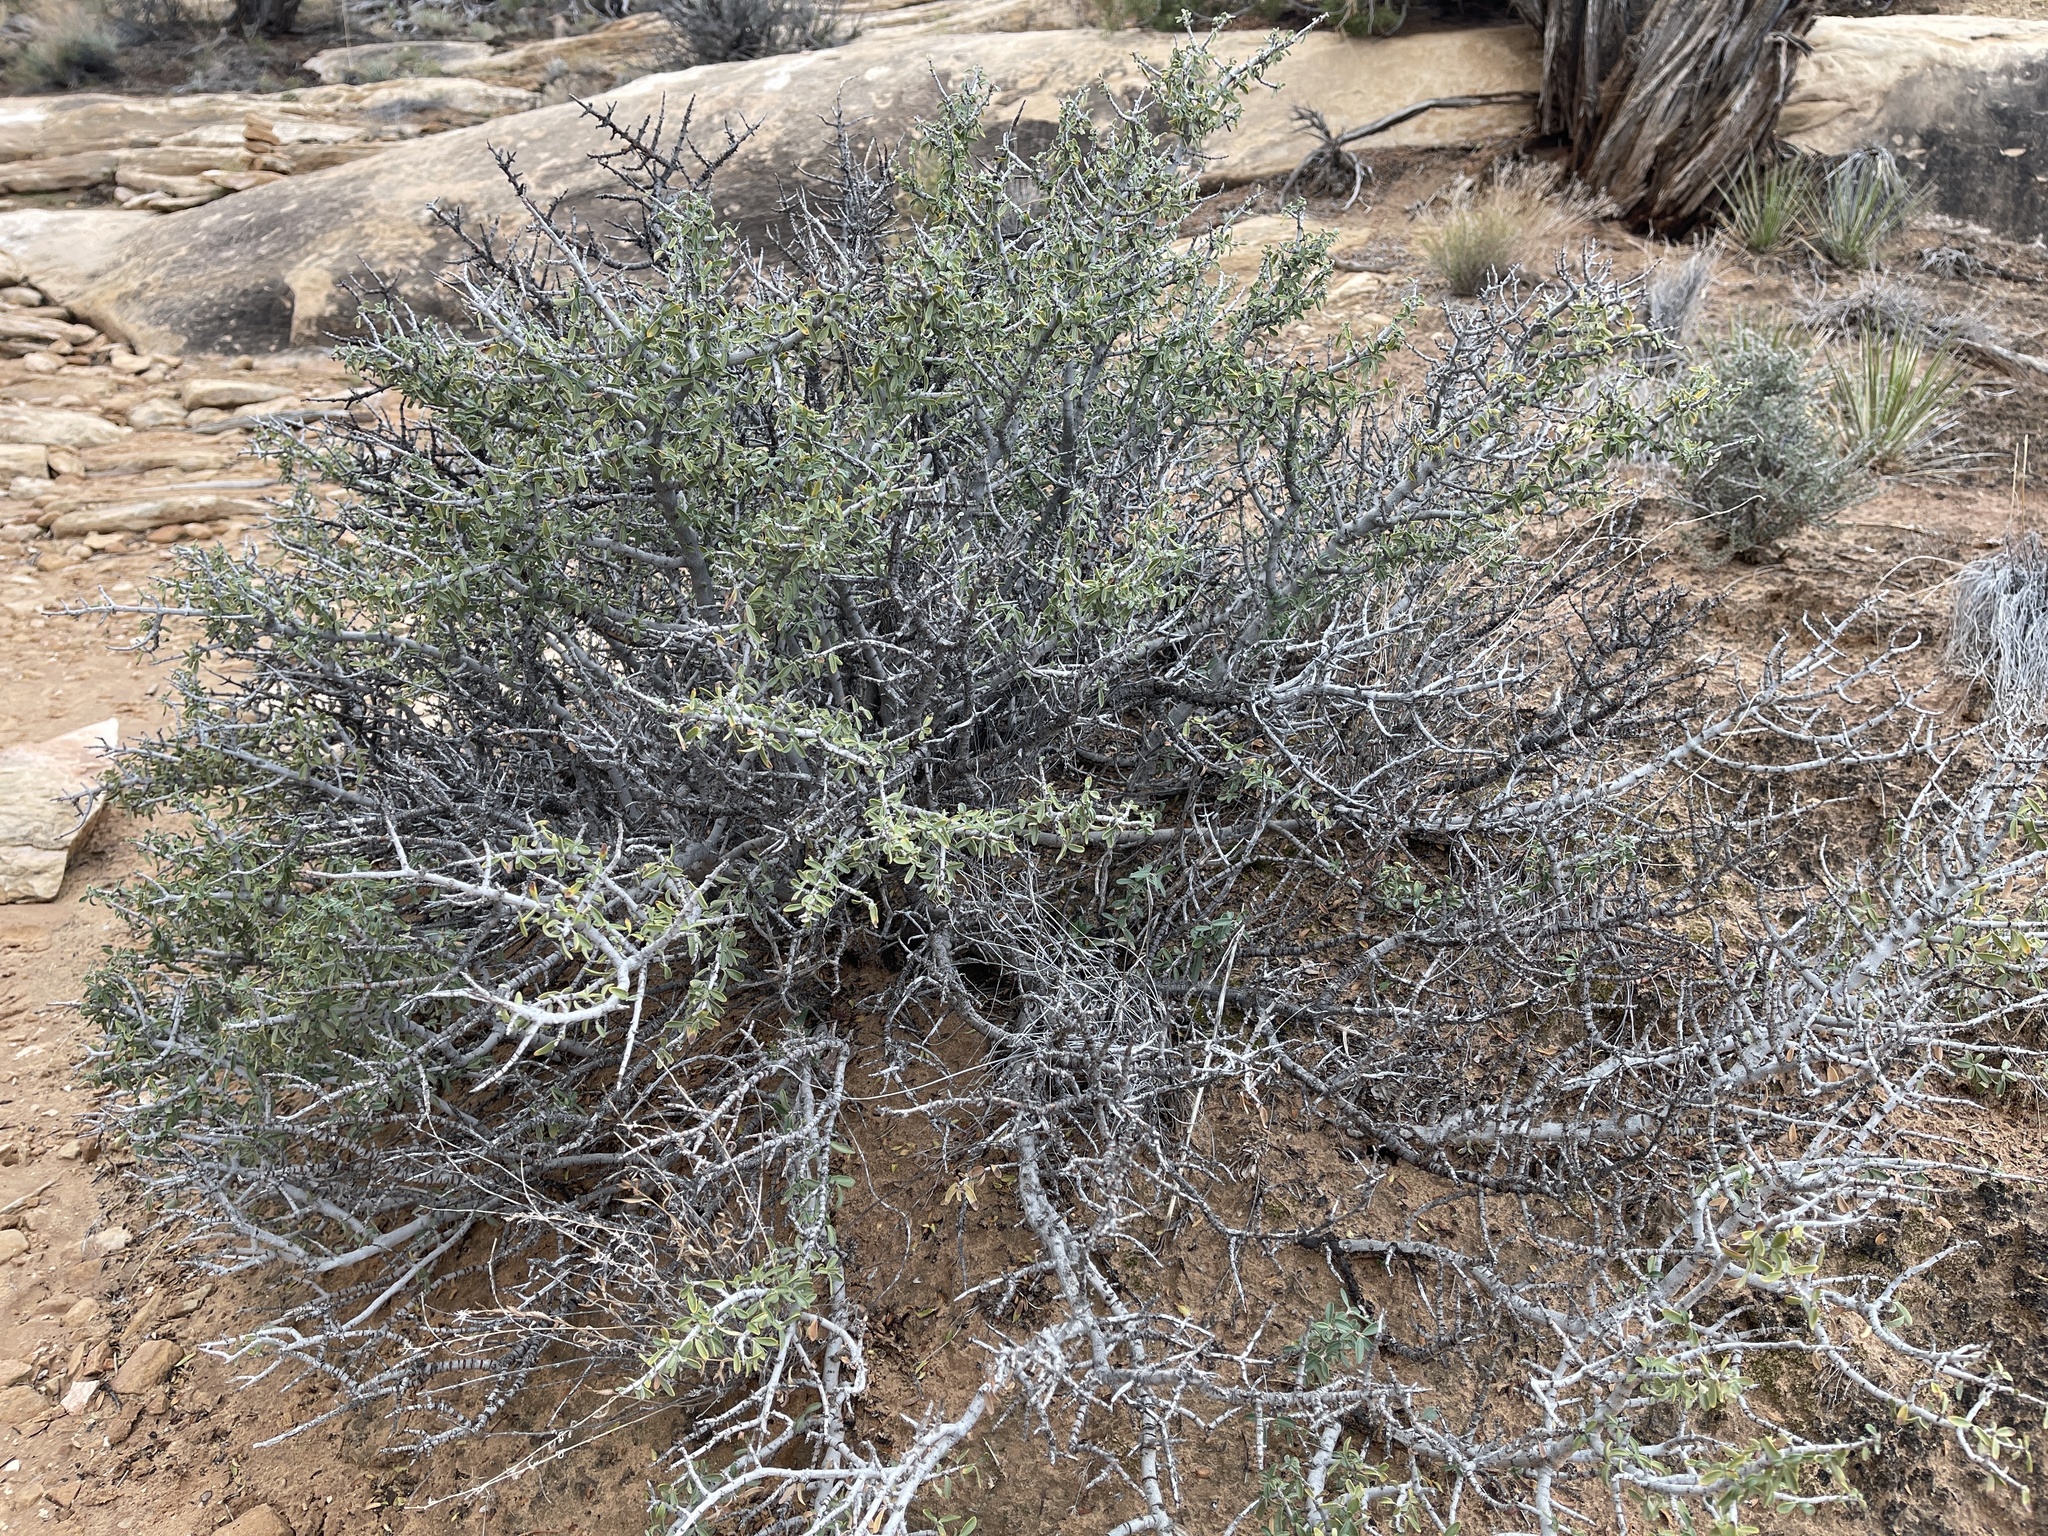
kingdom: Plantae
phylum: Tracheophyta
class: Magnoliopsida
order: Rosales
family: Rhamnaceae
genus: Ceanothus
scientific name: Ceanothus pauciflorus
